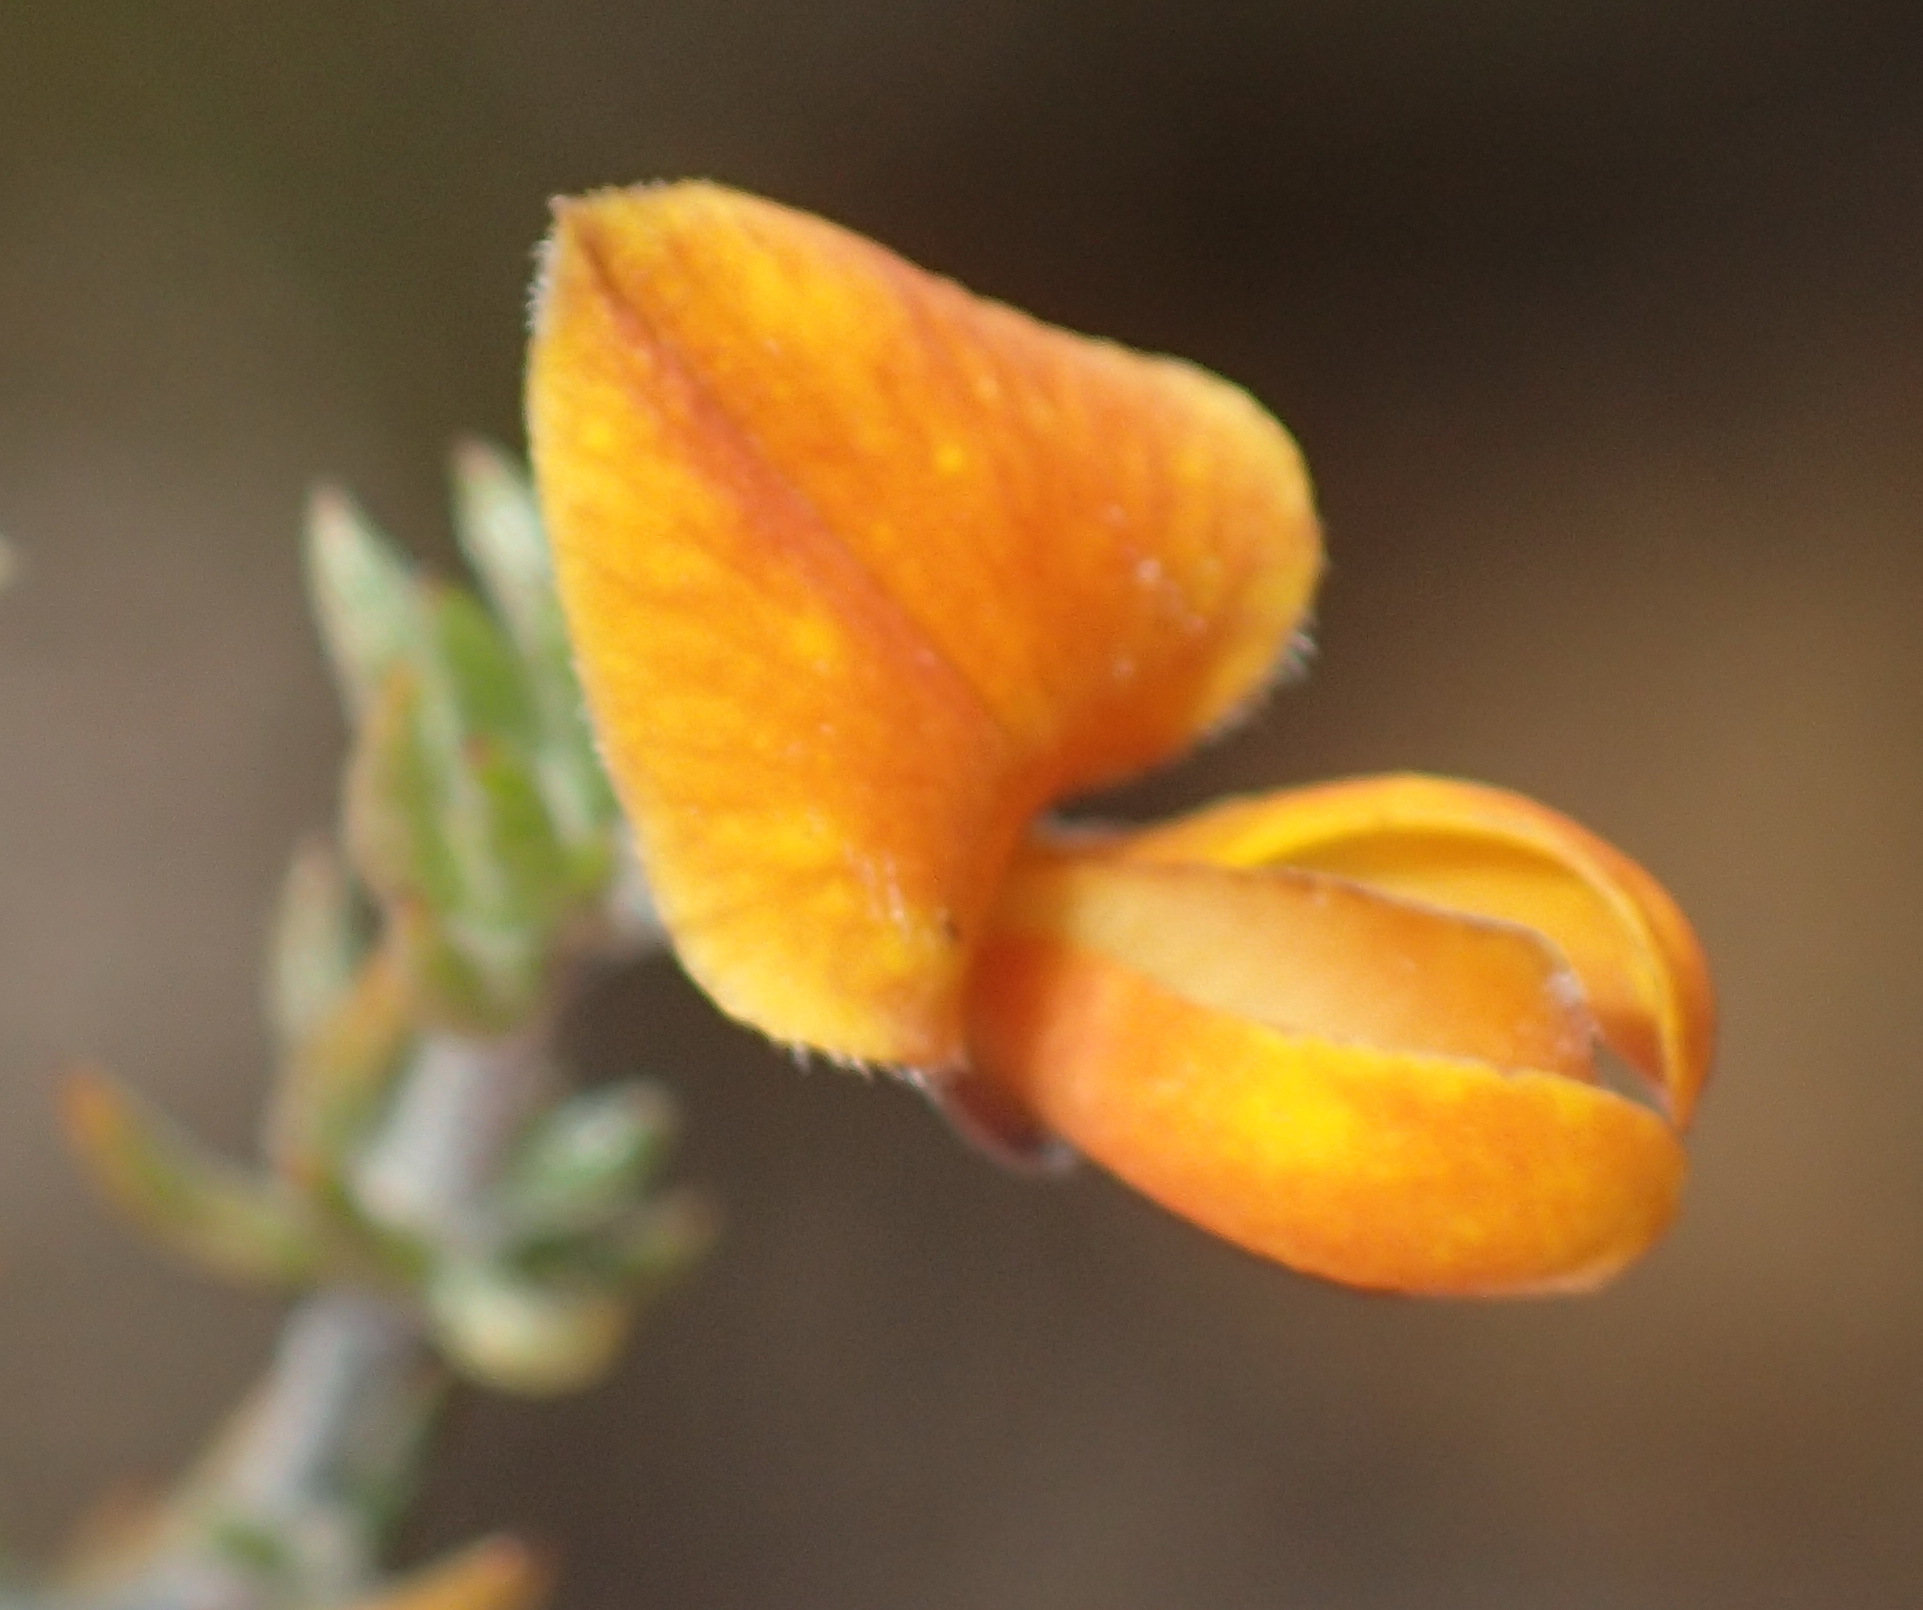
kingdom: Plantae
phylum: Tracheophyta
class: Magnoliopsida
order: Fabales
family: Fabaceae
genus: Aspalathus
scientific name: Aspalathus rubens
